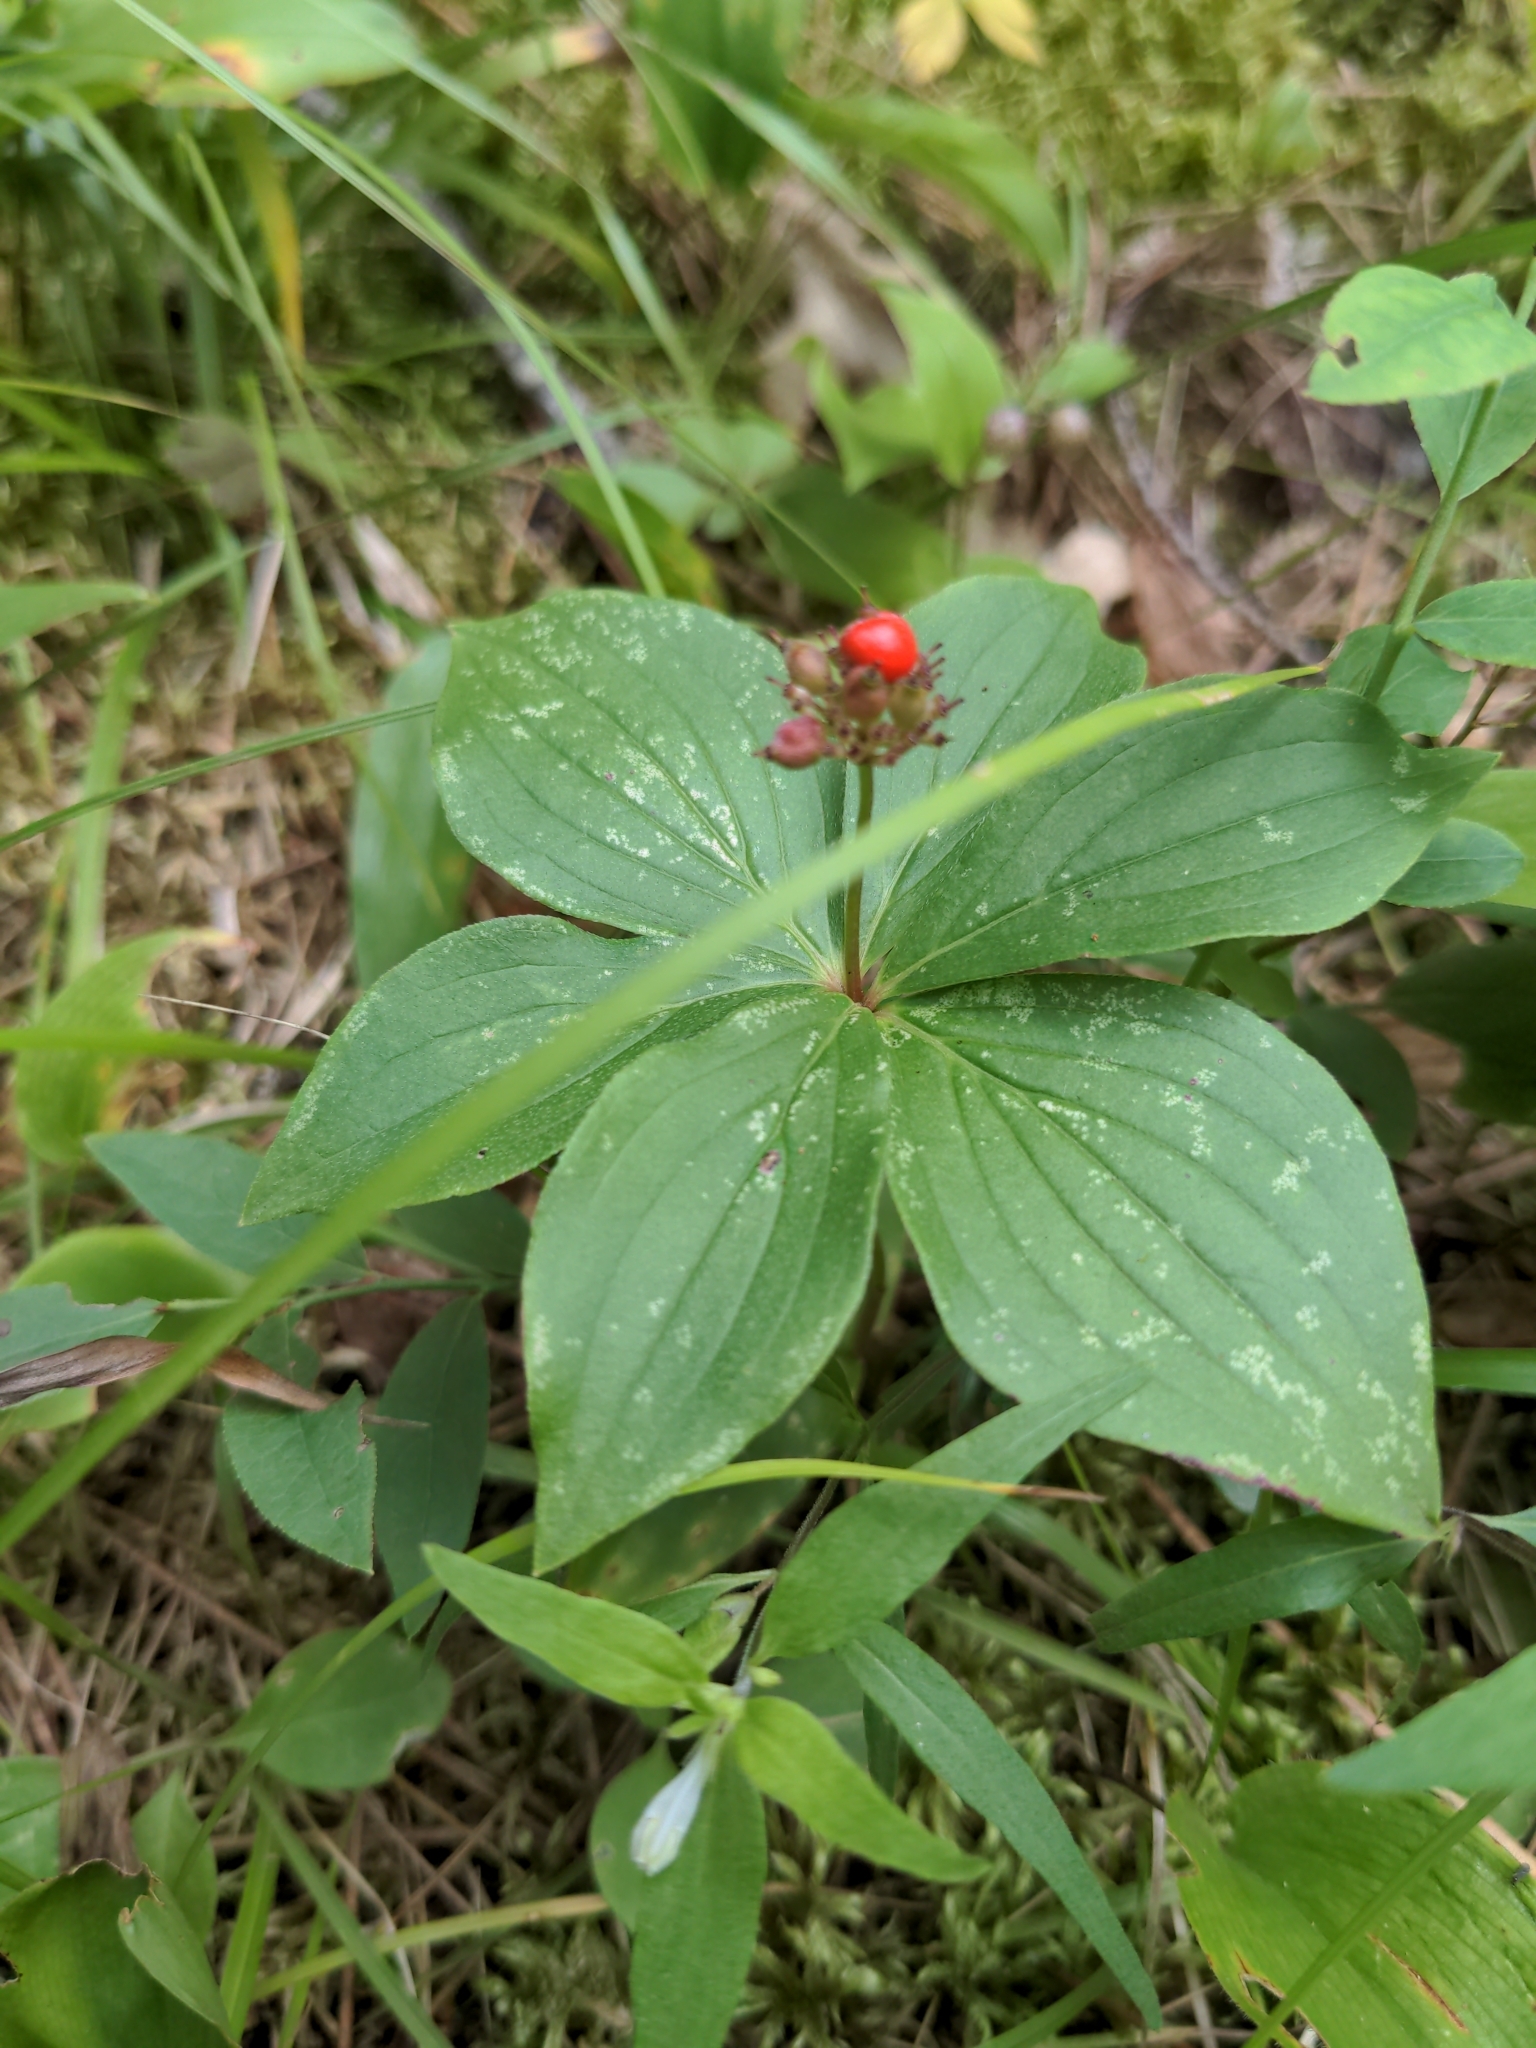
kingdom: Plantae
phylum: Tracheophyta
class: Magnoliopsida
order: Cornales
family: Cornaceae
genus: Cornus
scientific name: Cornus canadensis
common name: Creeping dogwood
